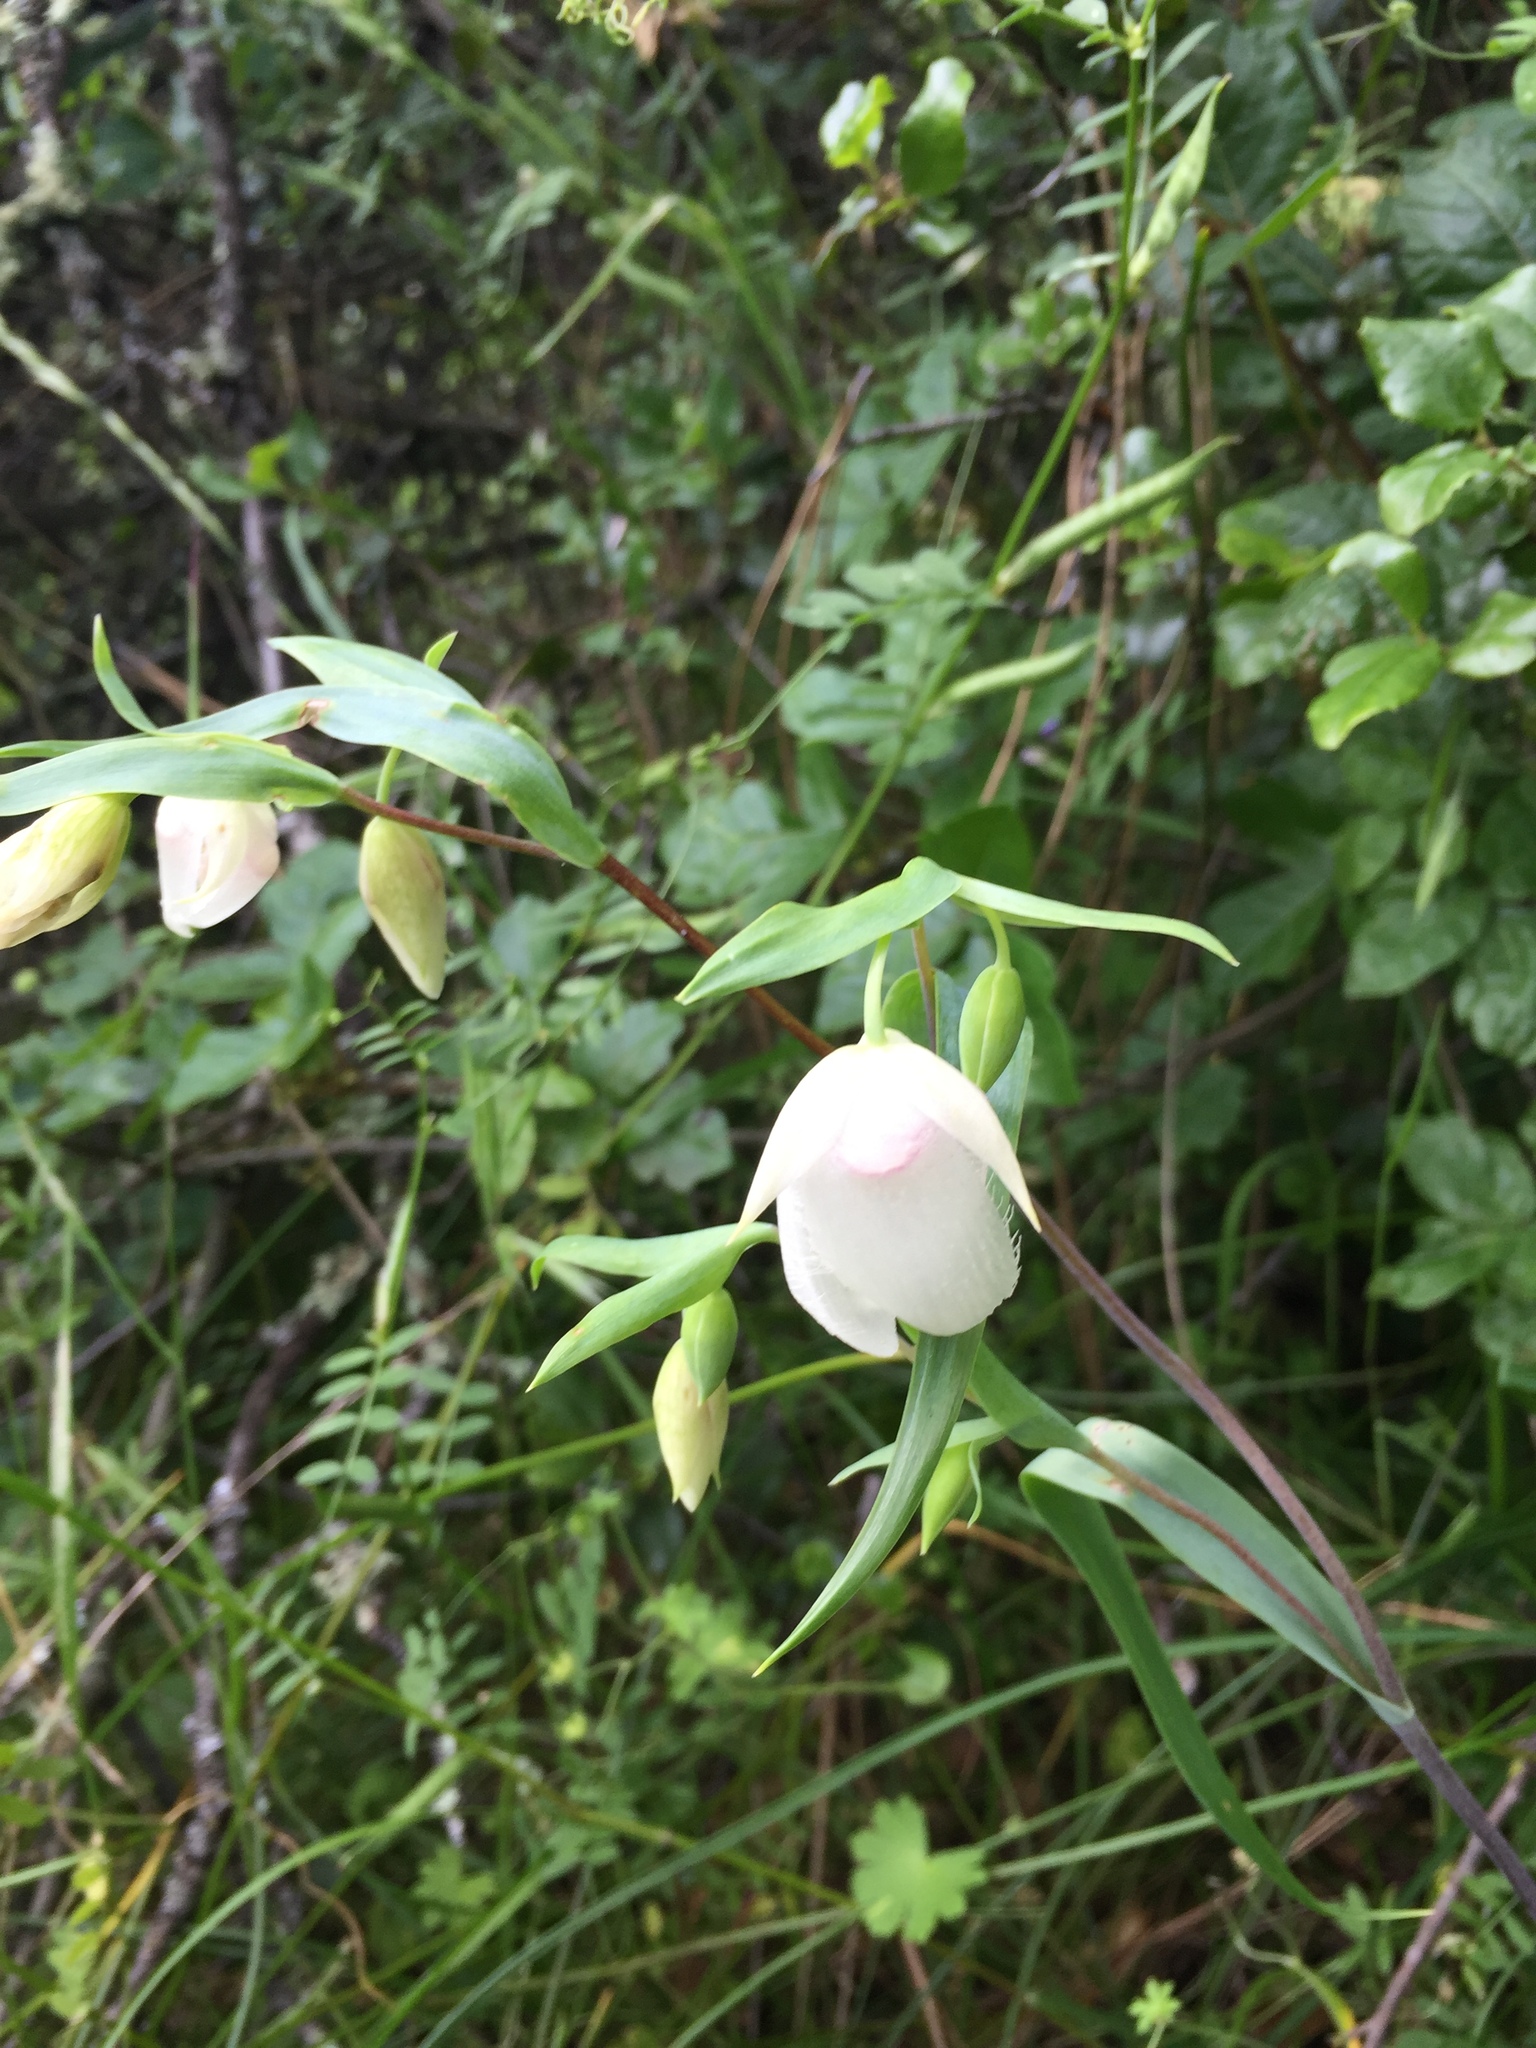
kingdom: Plantae
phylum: Tracheophyta
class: Liliopsida
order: Liliales
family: Liliaceae
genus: Calochortus
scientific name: Calochortus albus
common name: Fairy-lantern
